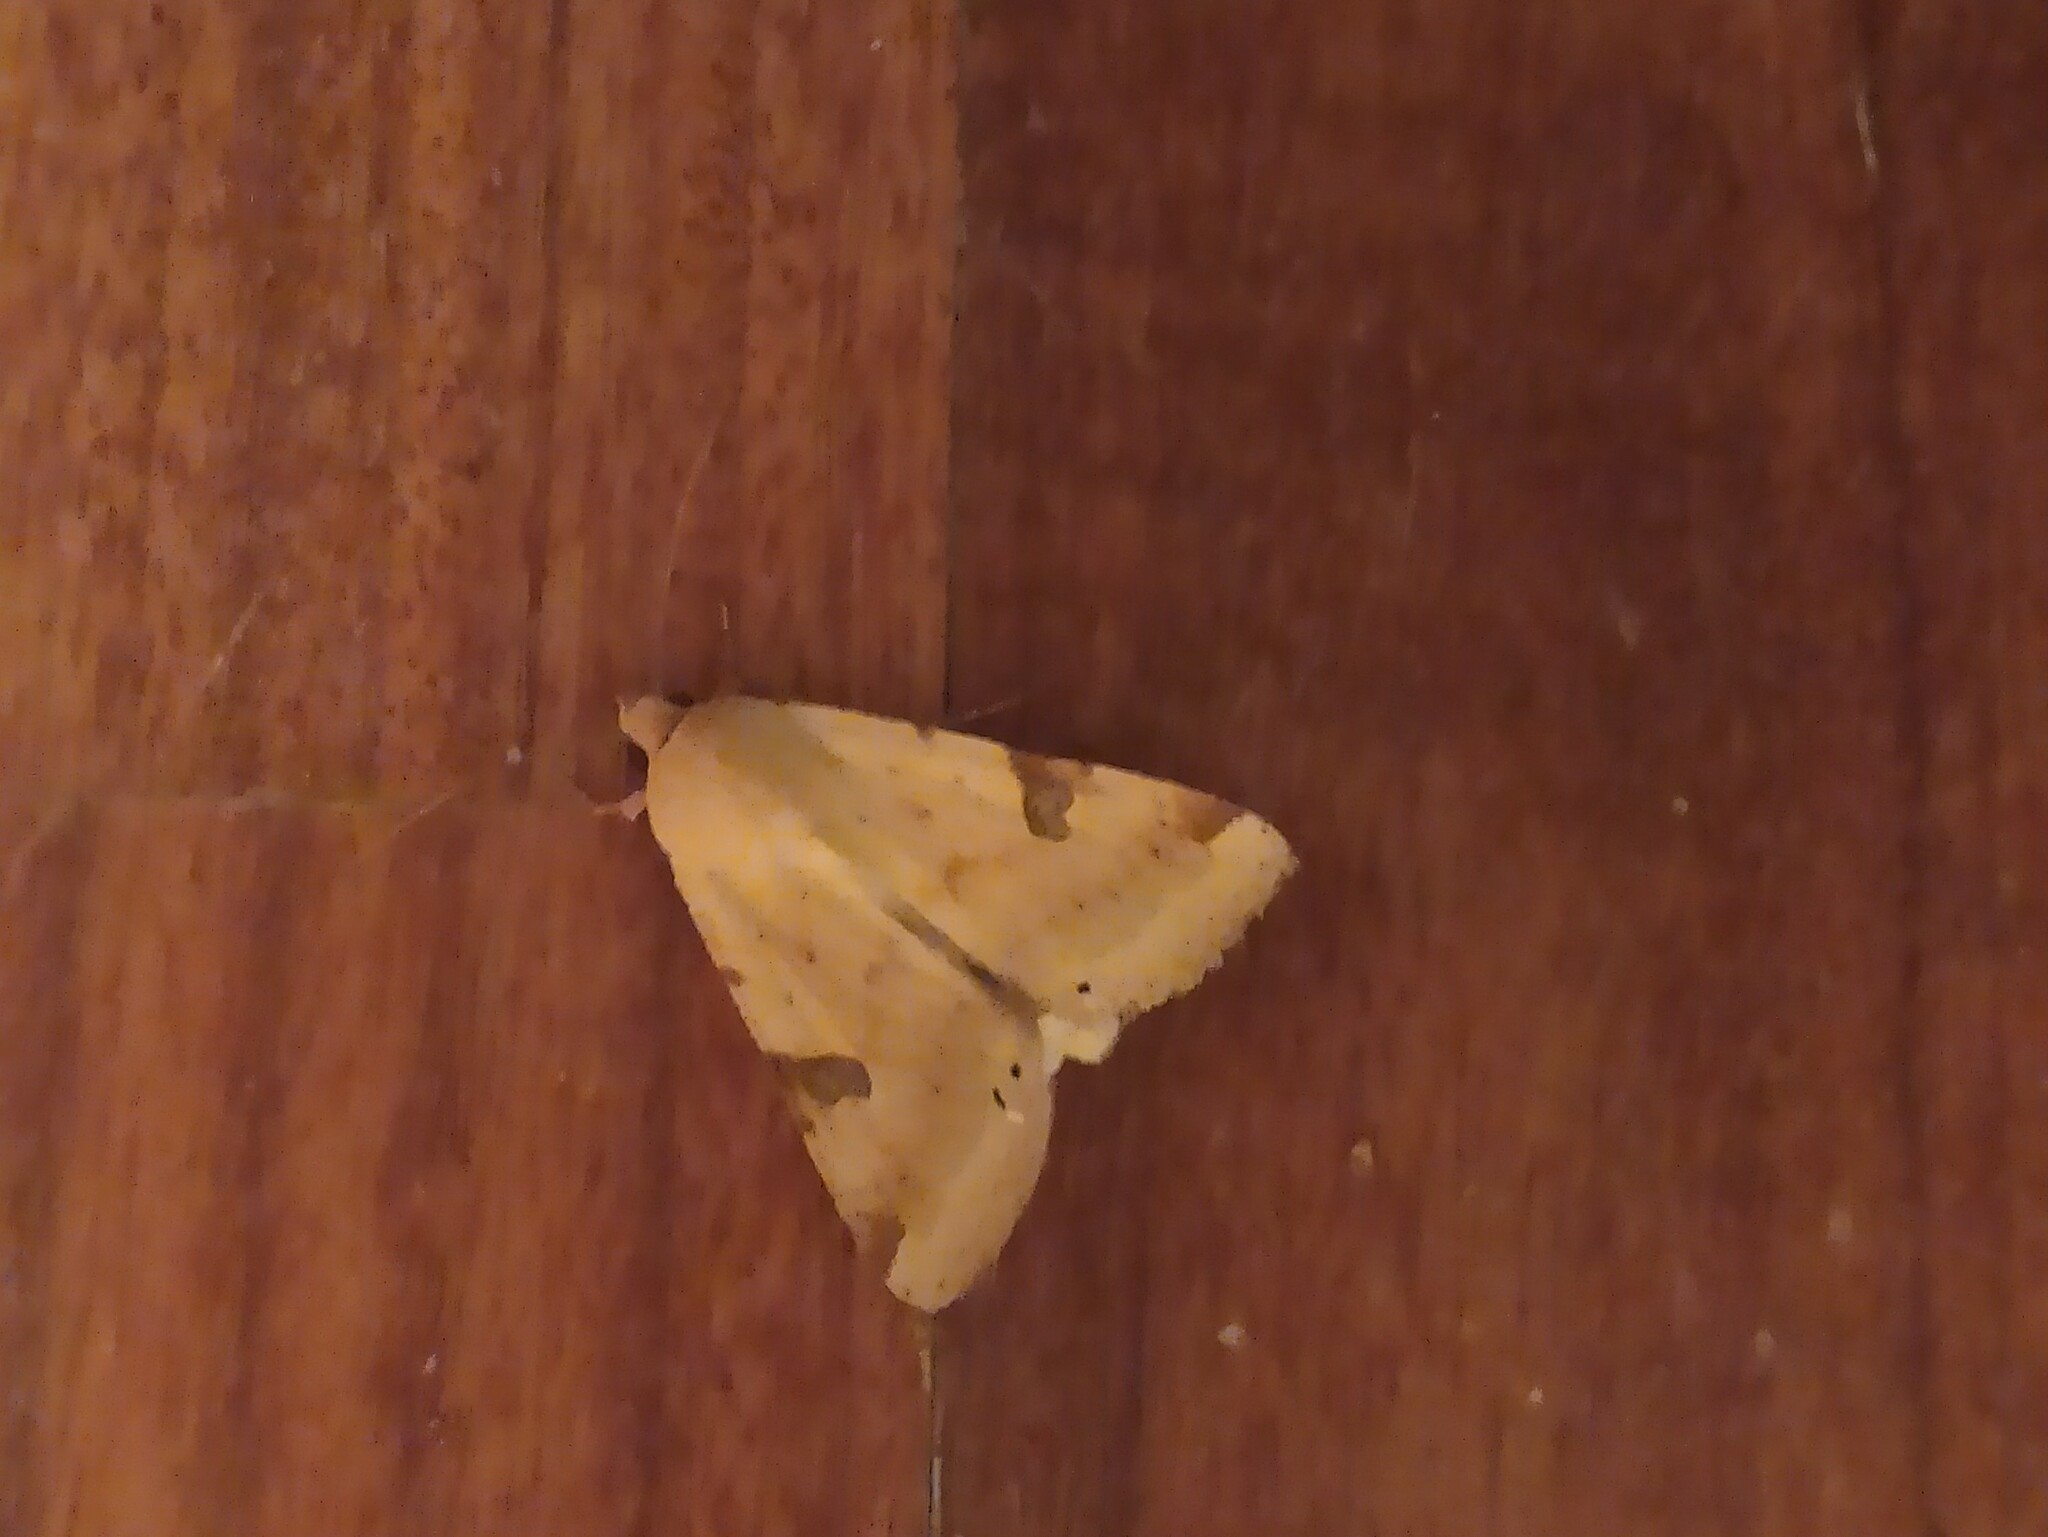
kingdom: Animalia
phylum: Arthropoda
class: Insecta
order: Lepidoptera
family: Noctuidae
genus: Heliothis
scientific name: Heliothis peltigera
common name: Bordered straw
